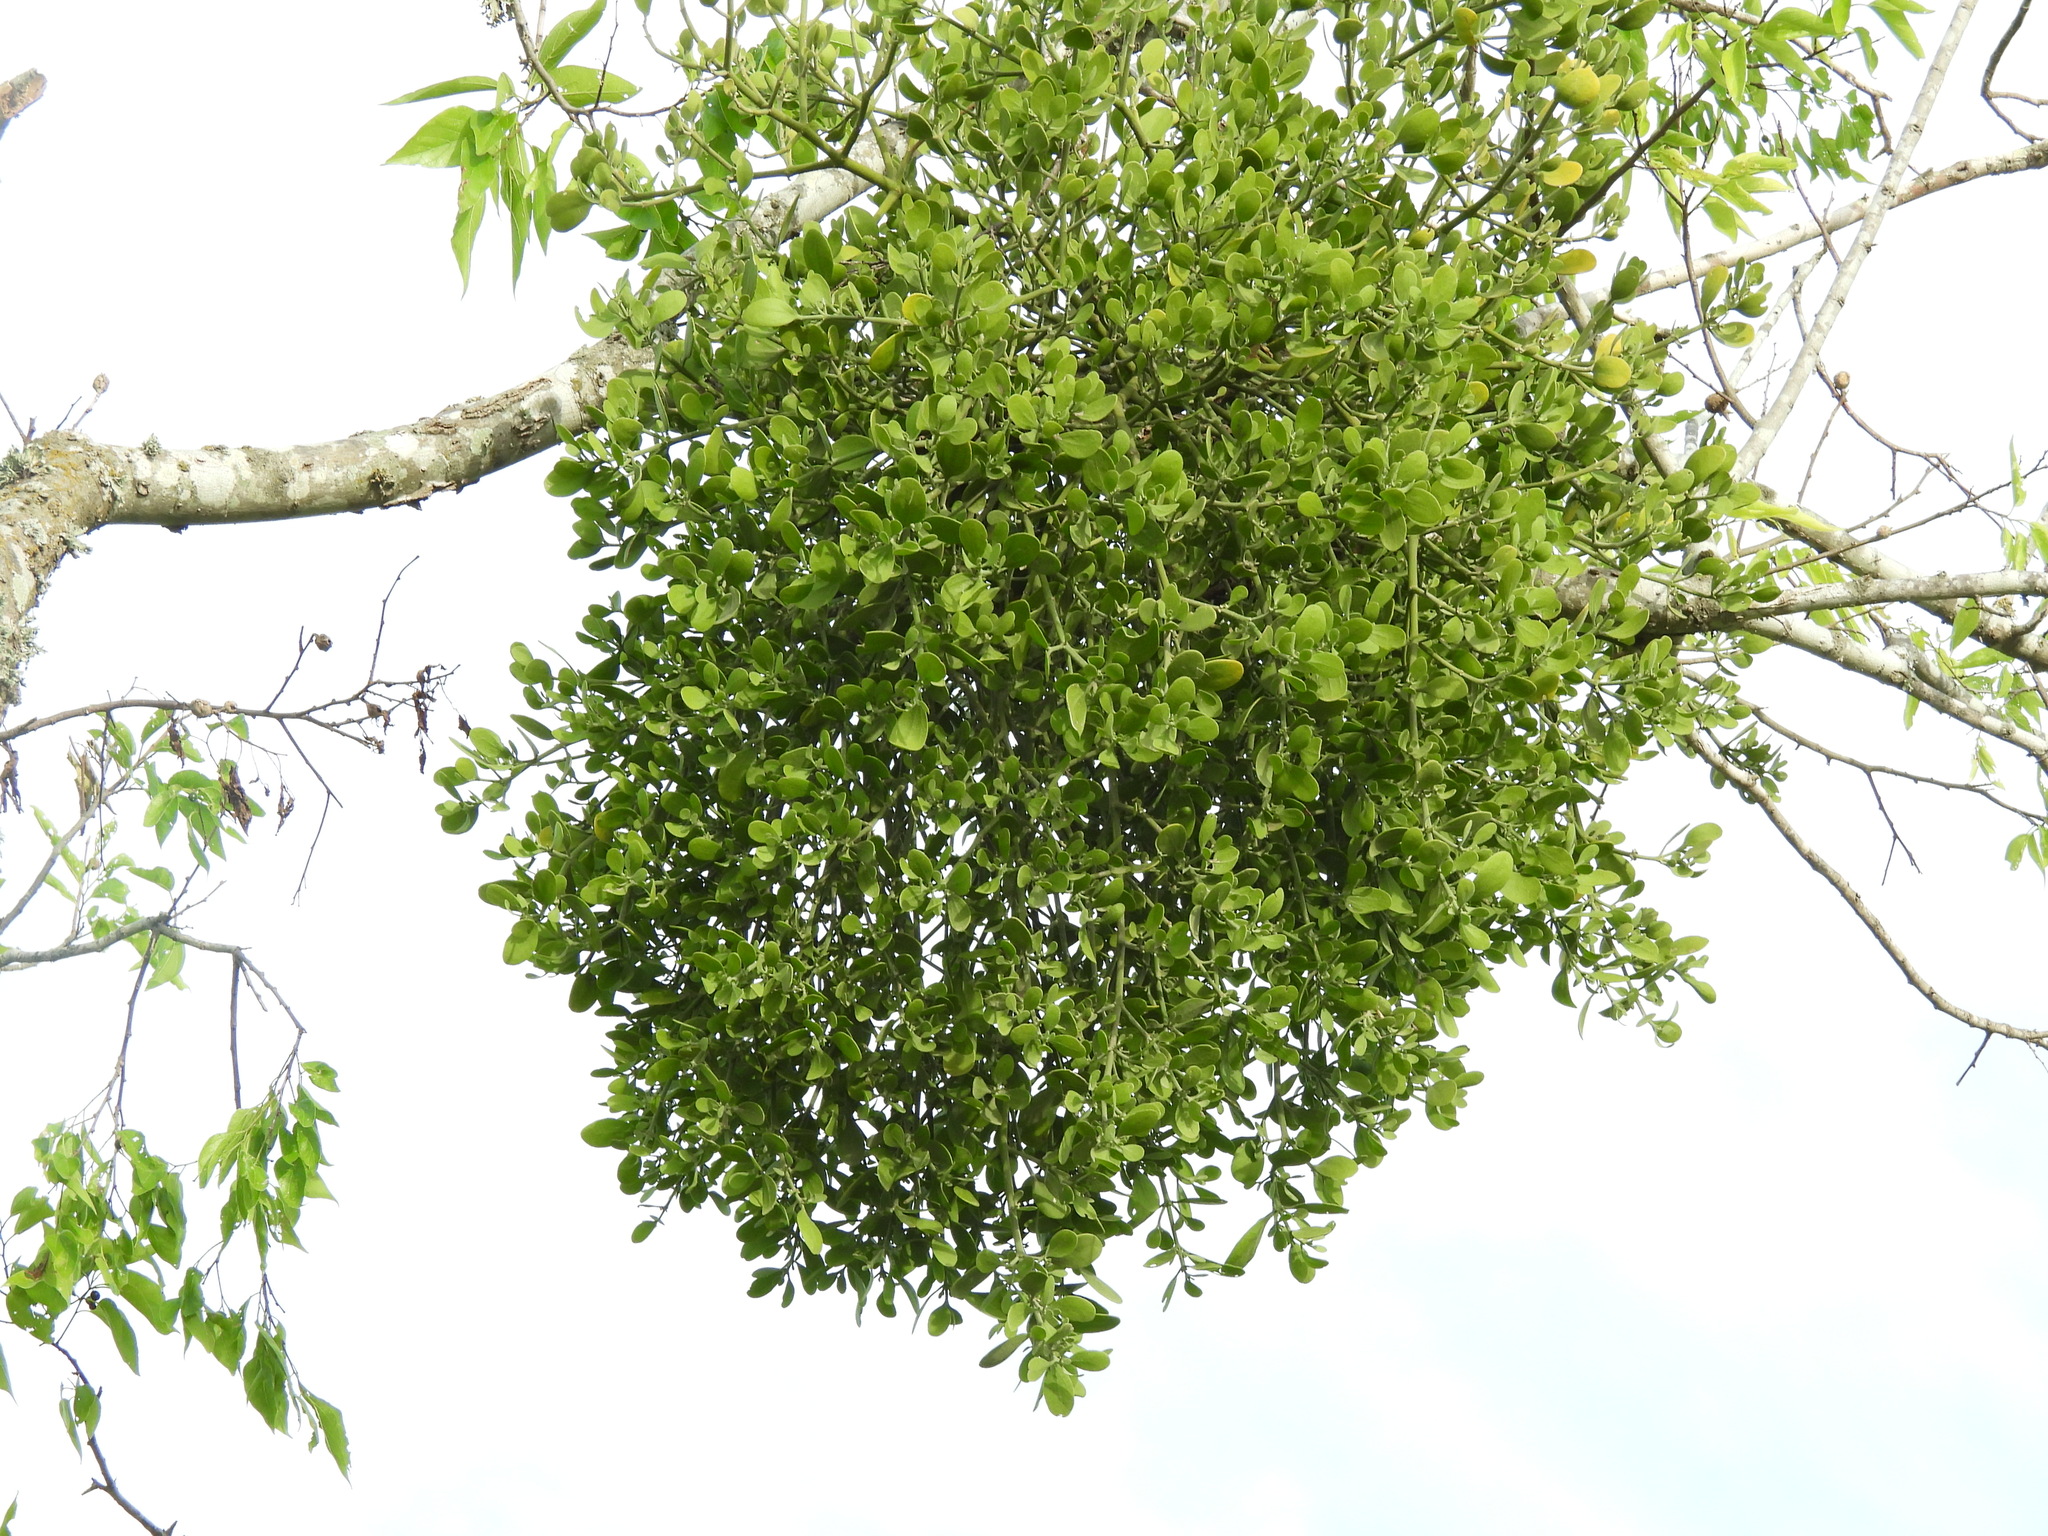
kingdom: Plantae
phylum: Tracheophyta
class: Magnoliopsida
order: Santalales
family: Viscaceae
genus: Phoradendron
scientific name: Phoradendron leucarpum
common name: Pacific mistletoe
